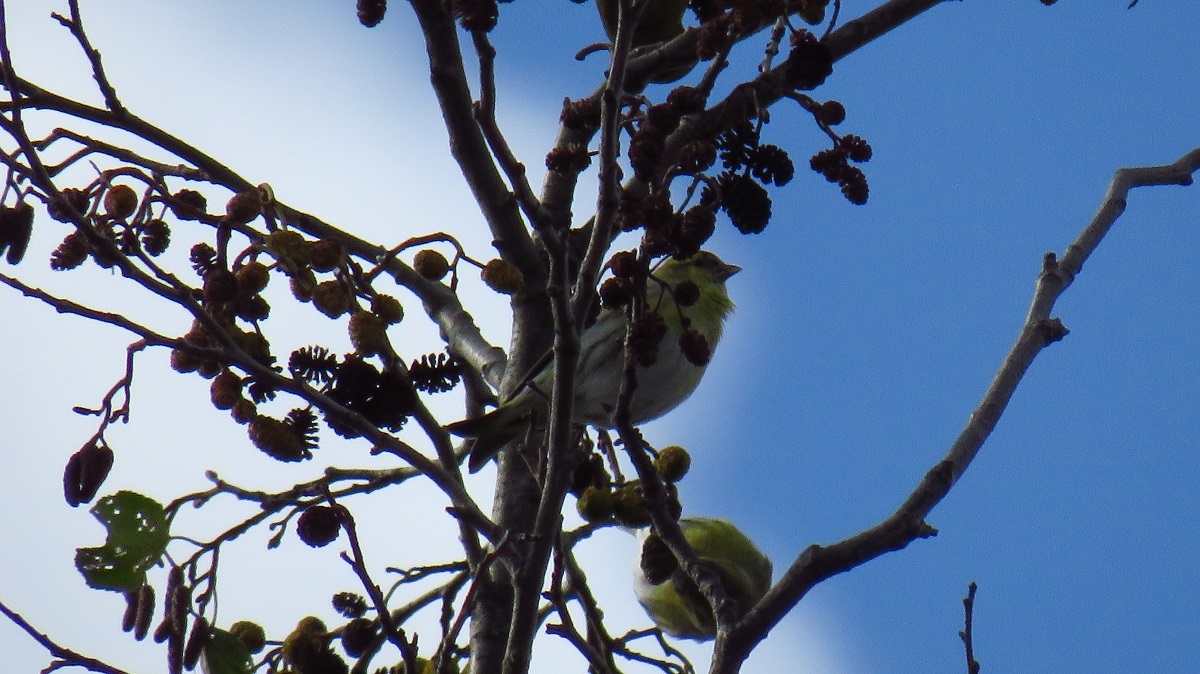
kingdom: Animalia
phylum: Chordata
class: Aves
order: Passeriformes
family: Fringillidae
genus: Spinus
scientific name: Spinus spinus
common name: Eurasian siskin
